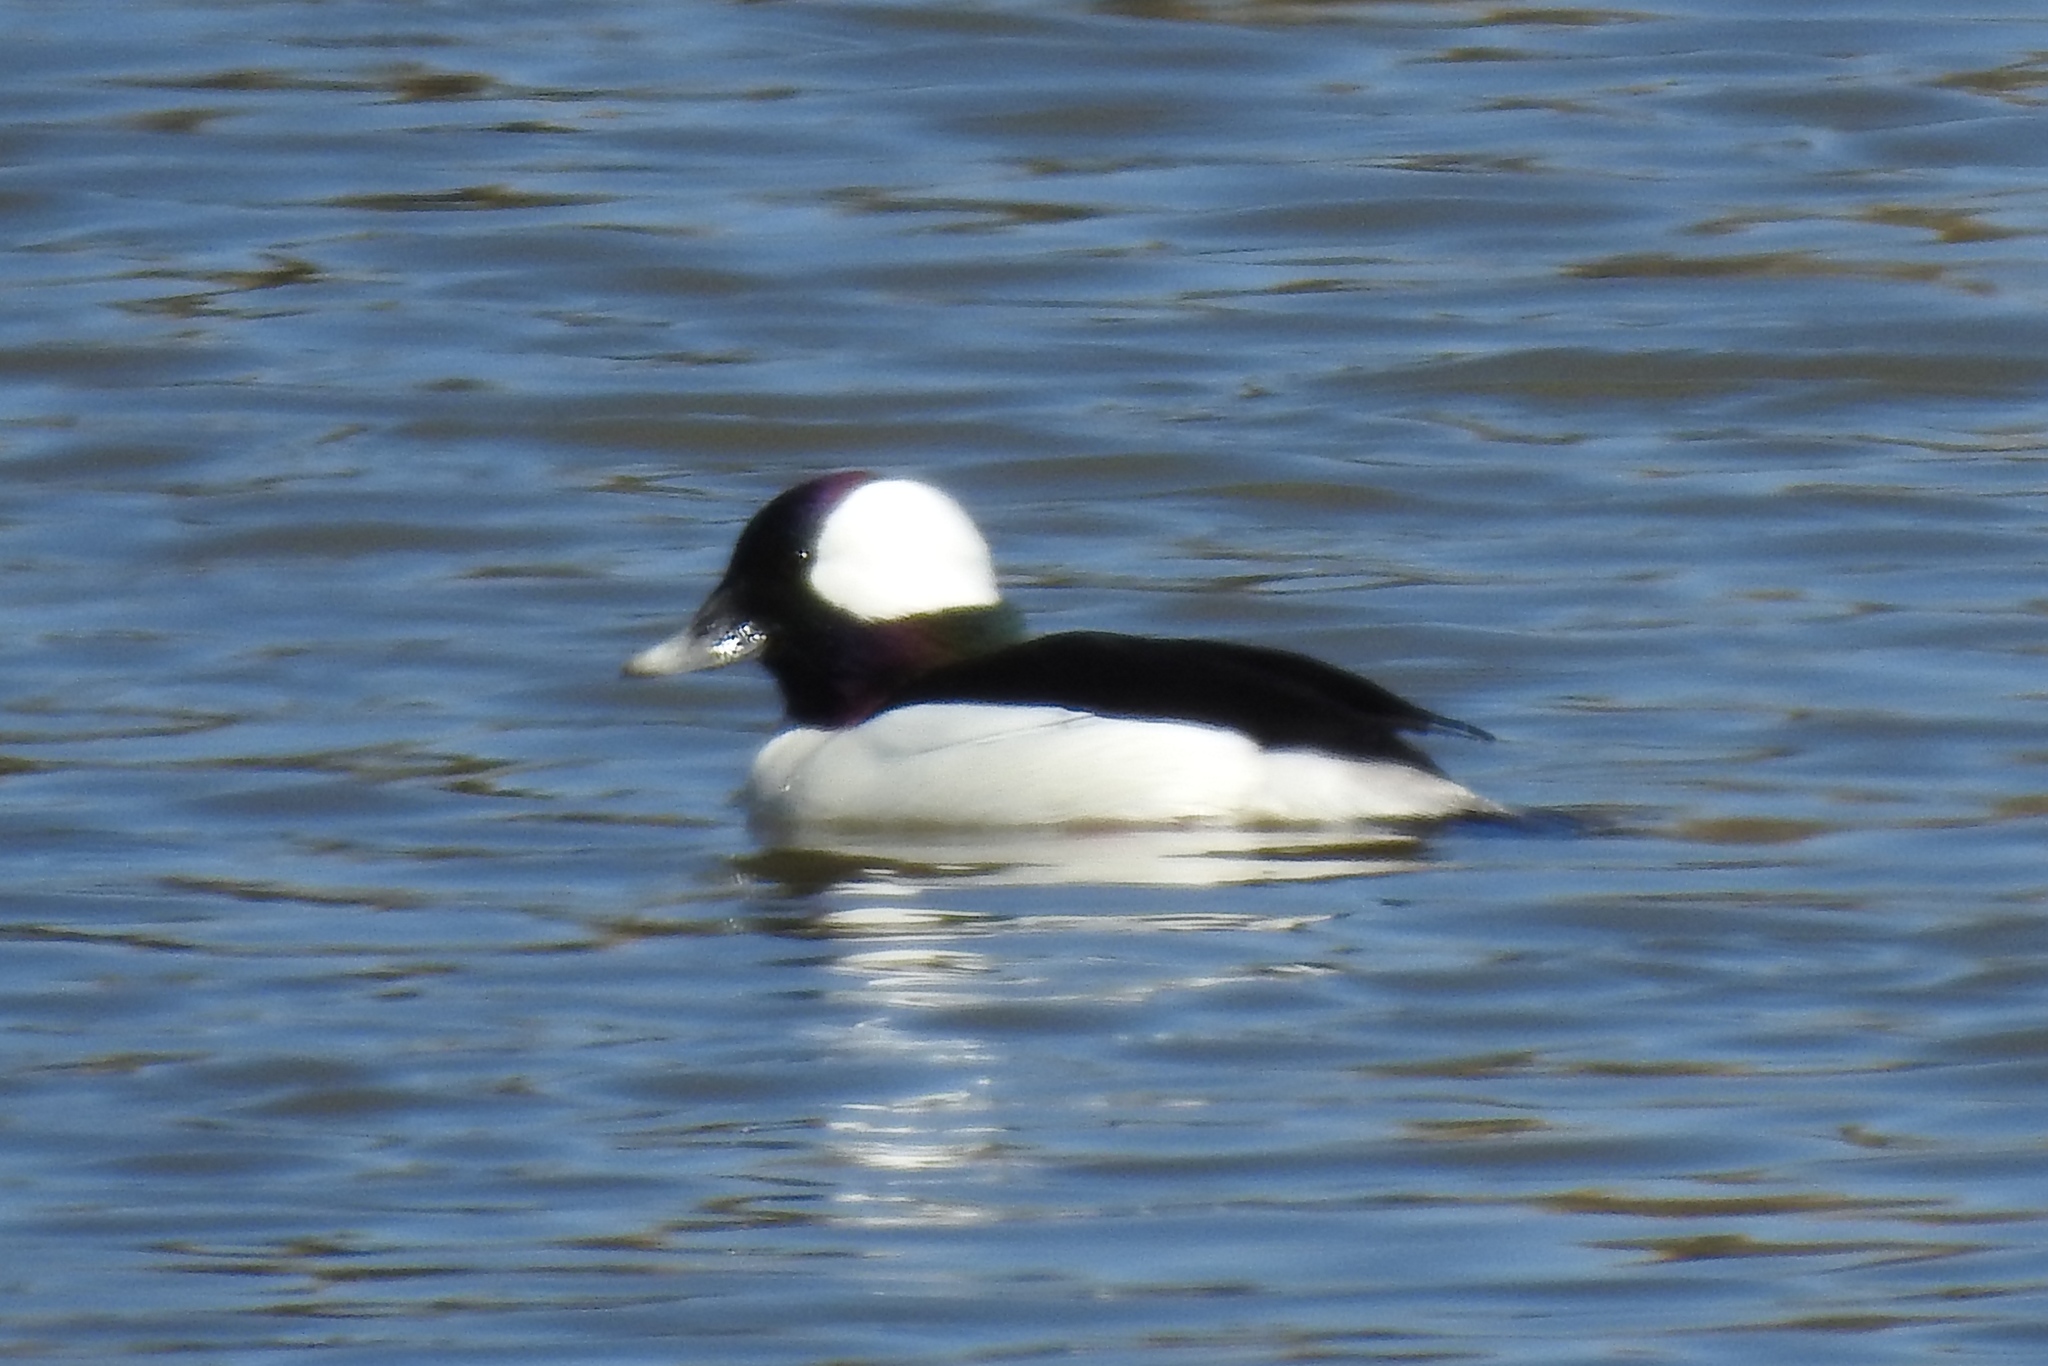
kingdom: Animalia
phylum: Chordata
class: Aves
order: Anseriformes
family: Anatidae
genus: Bucephala
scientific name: Bucephala albeola
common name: Bufflehead
